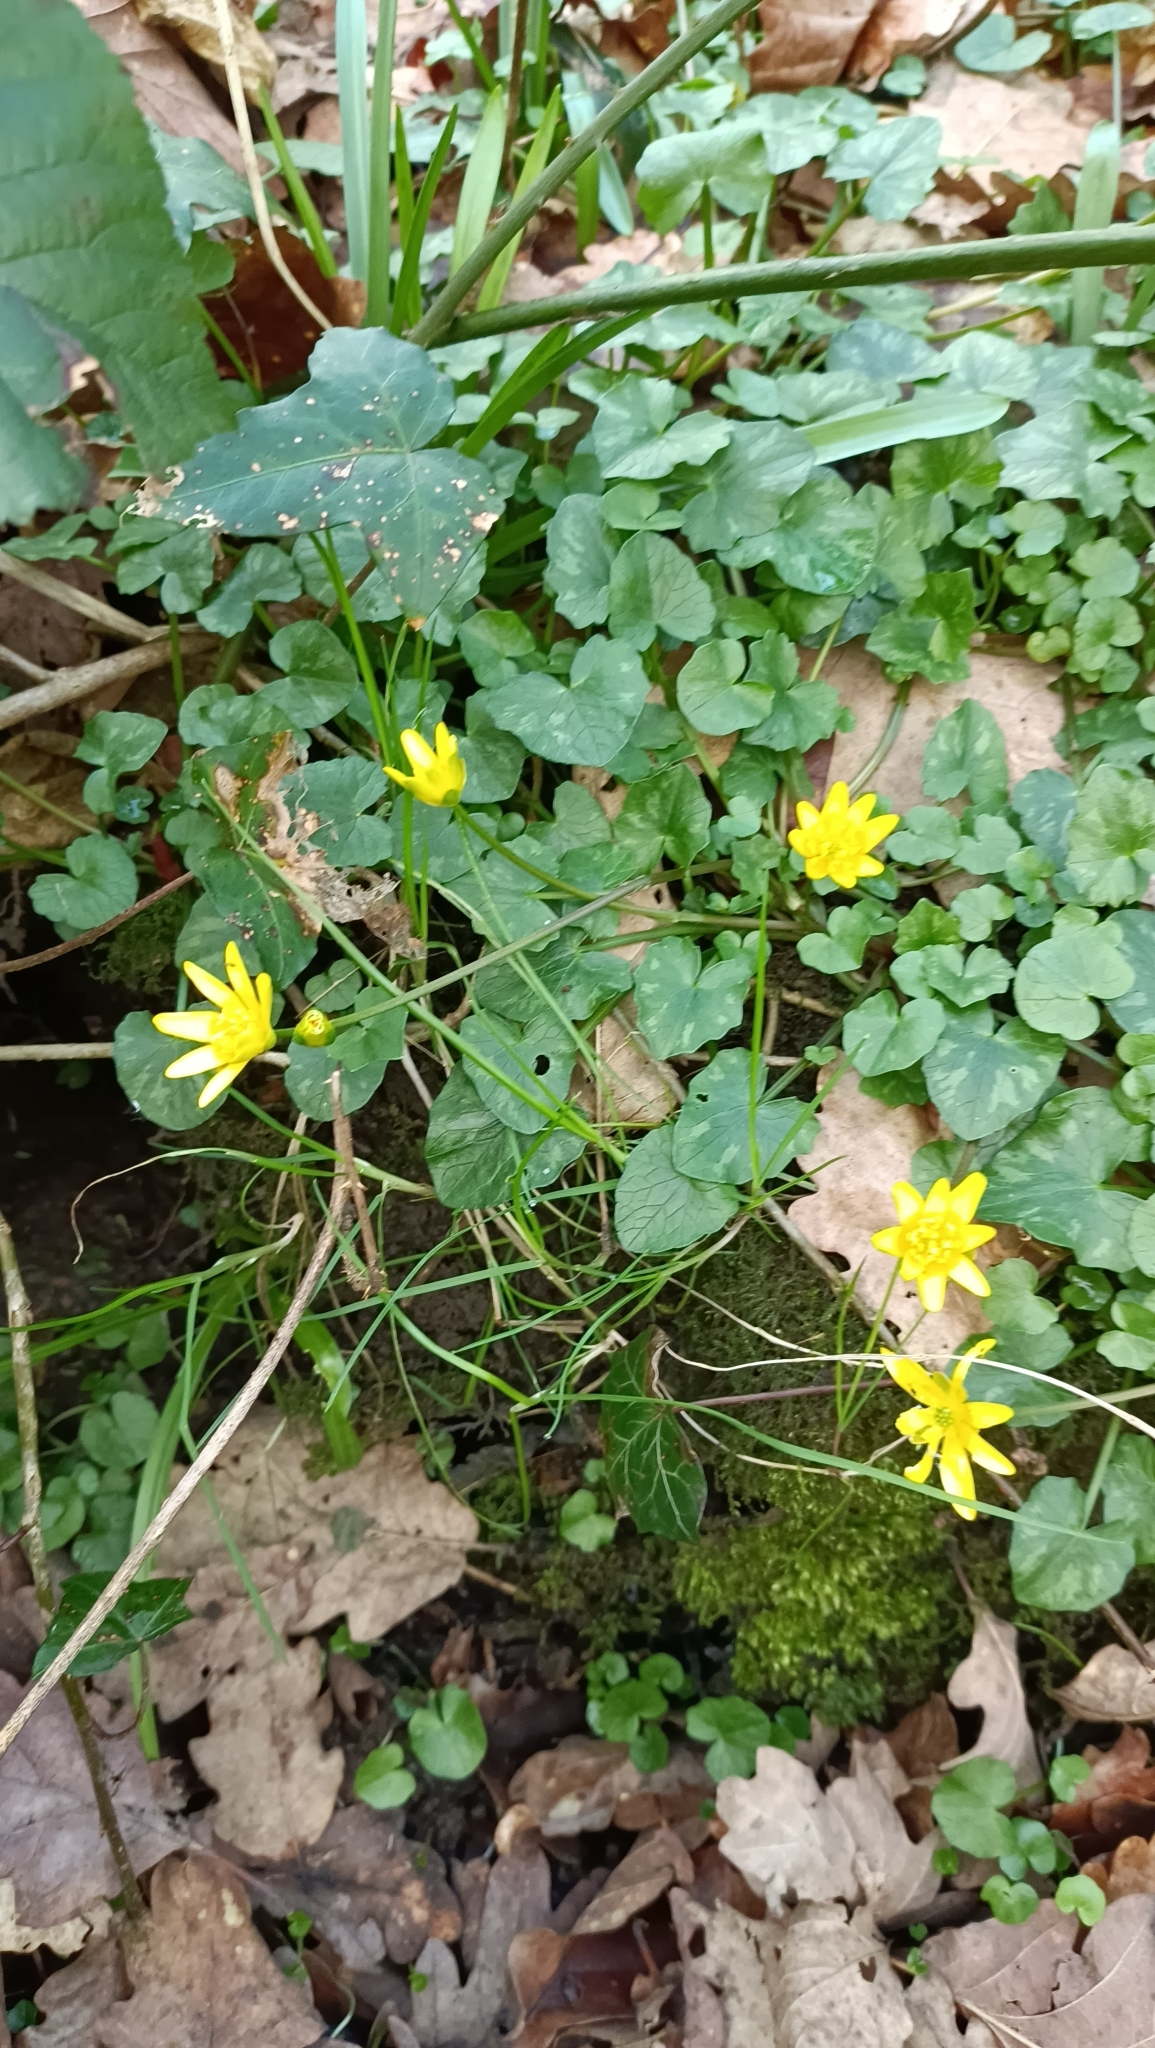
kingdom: Plantae
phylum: Tracheophyta
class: Magnoliopsida
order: Ranunculales
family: Ranunculaceae
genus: Ficaria
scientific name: Ficaria verna
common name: Lesser celandine
